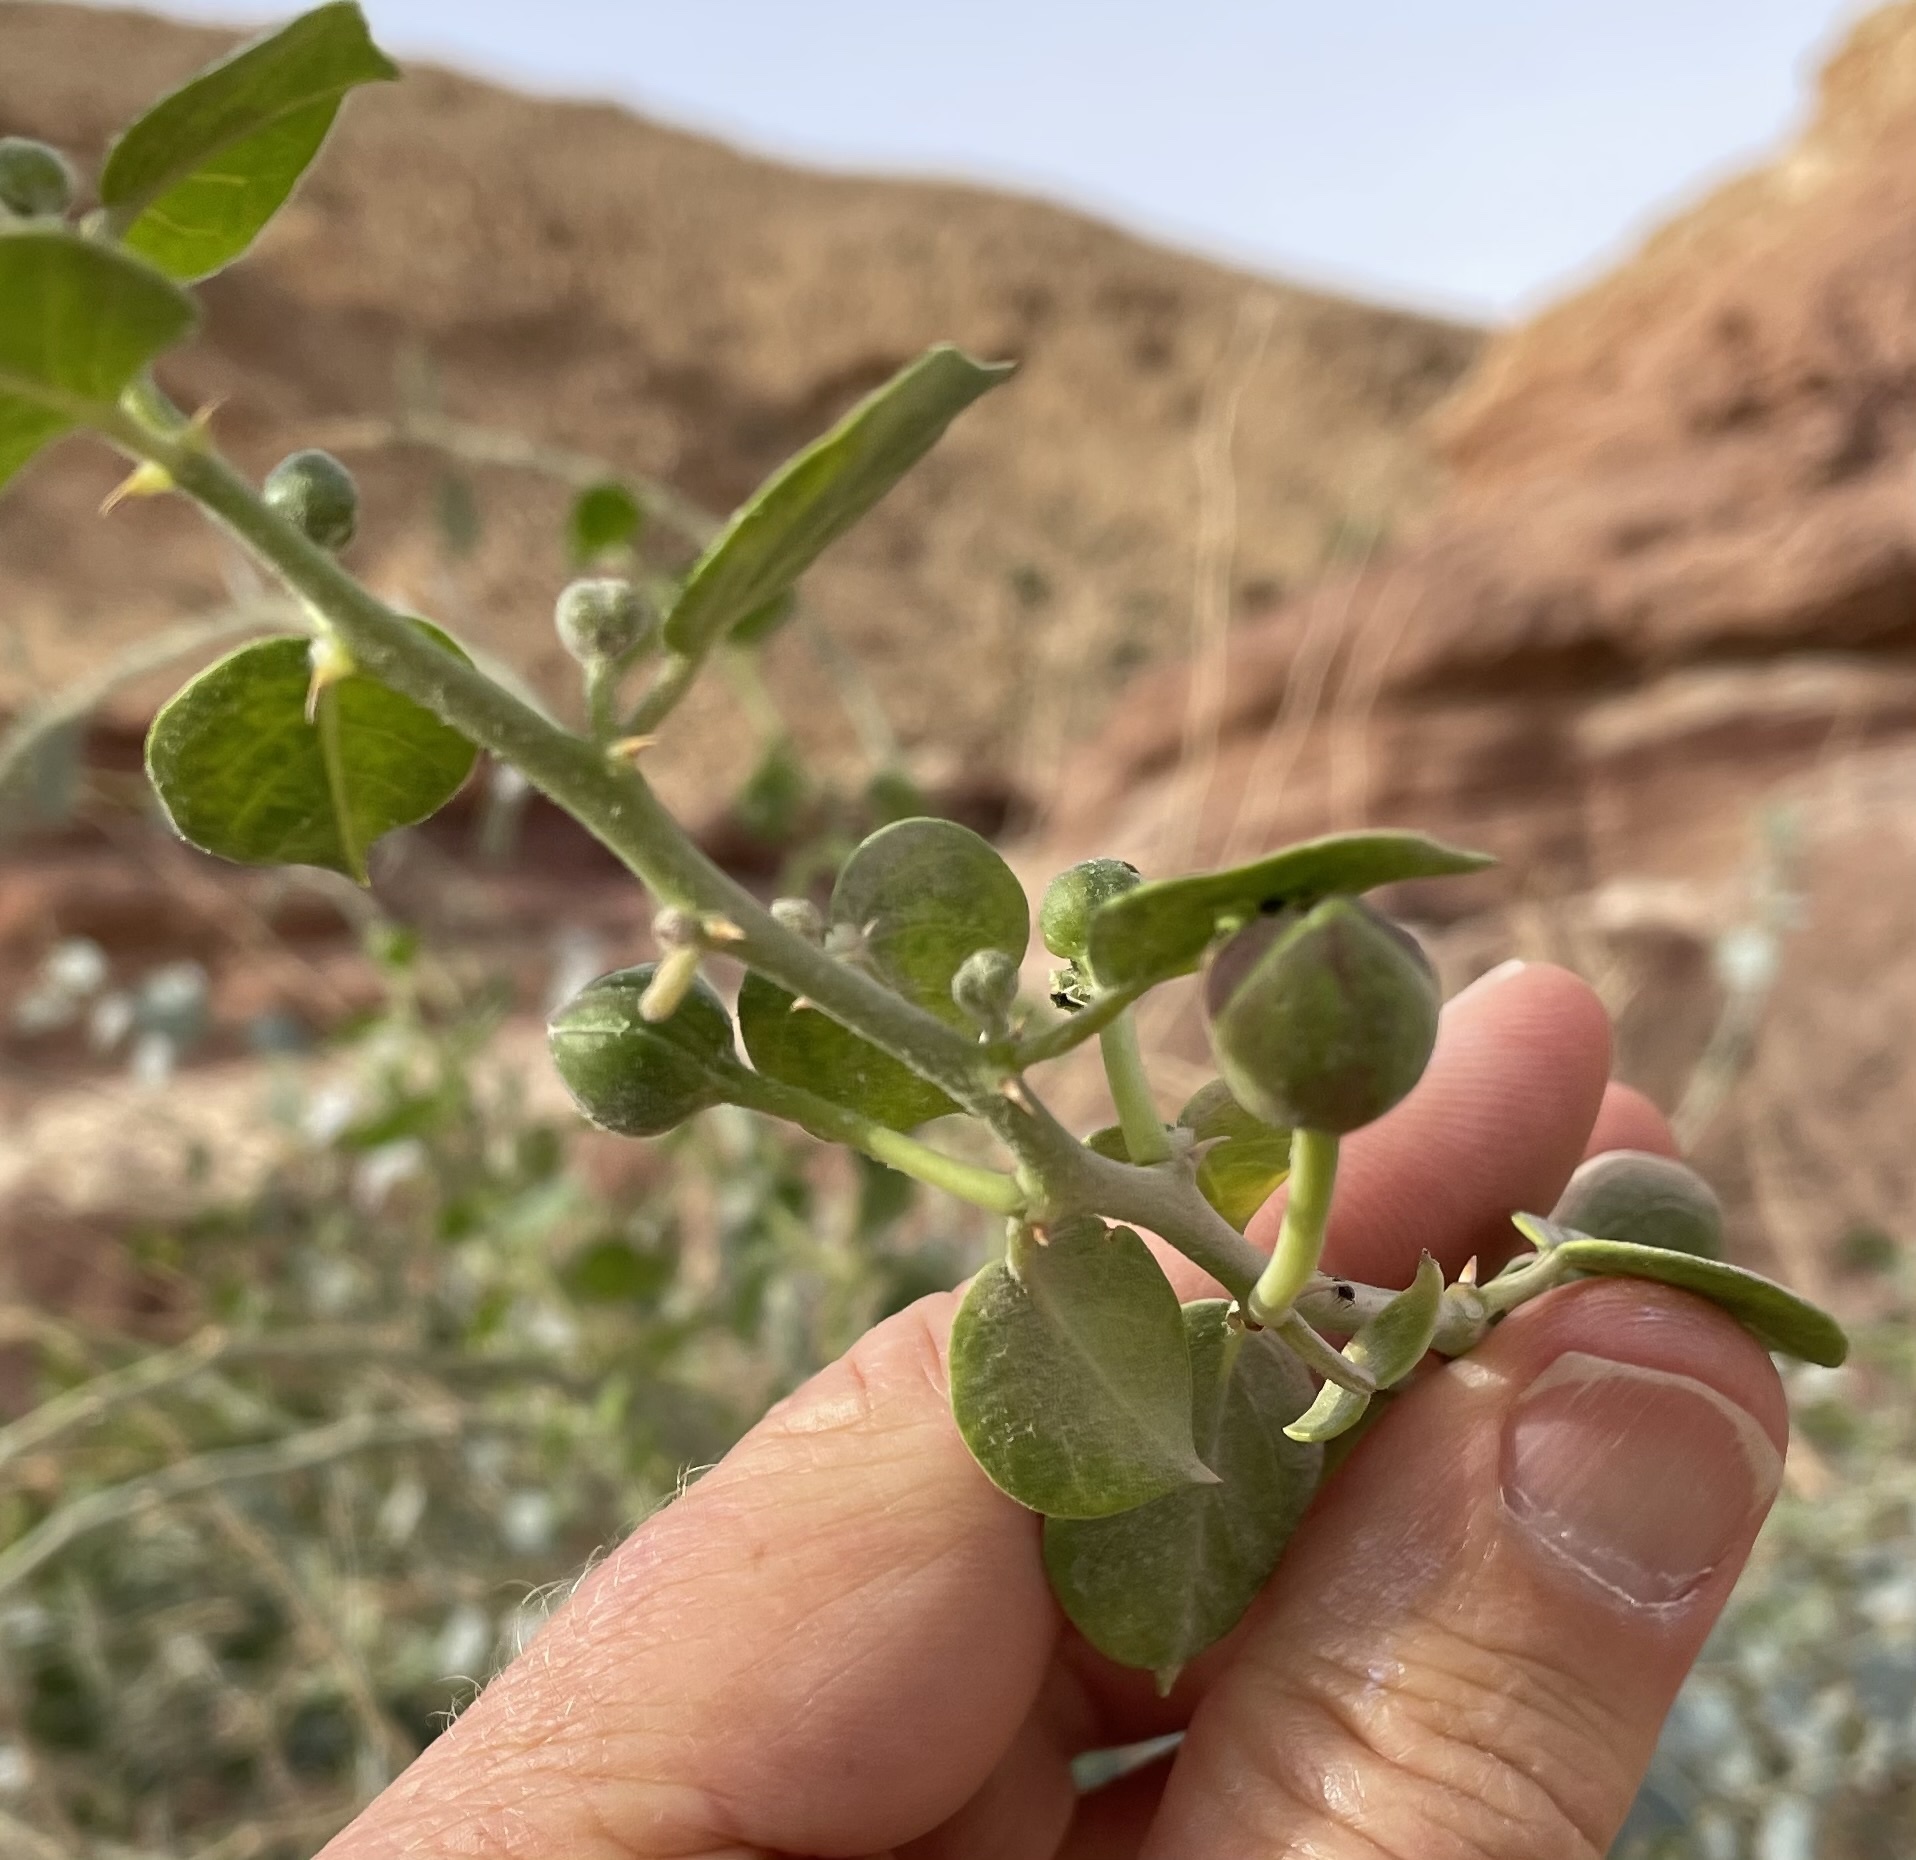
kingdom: Plantae
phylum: Tracheophyta
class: Magnoliopsida
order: Brassicales
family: Capparaceae
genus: Capparis
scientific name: Capparis spinosa
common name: Caper
